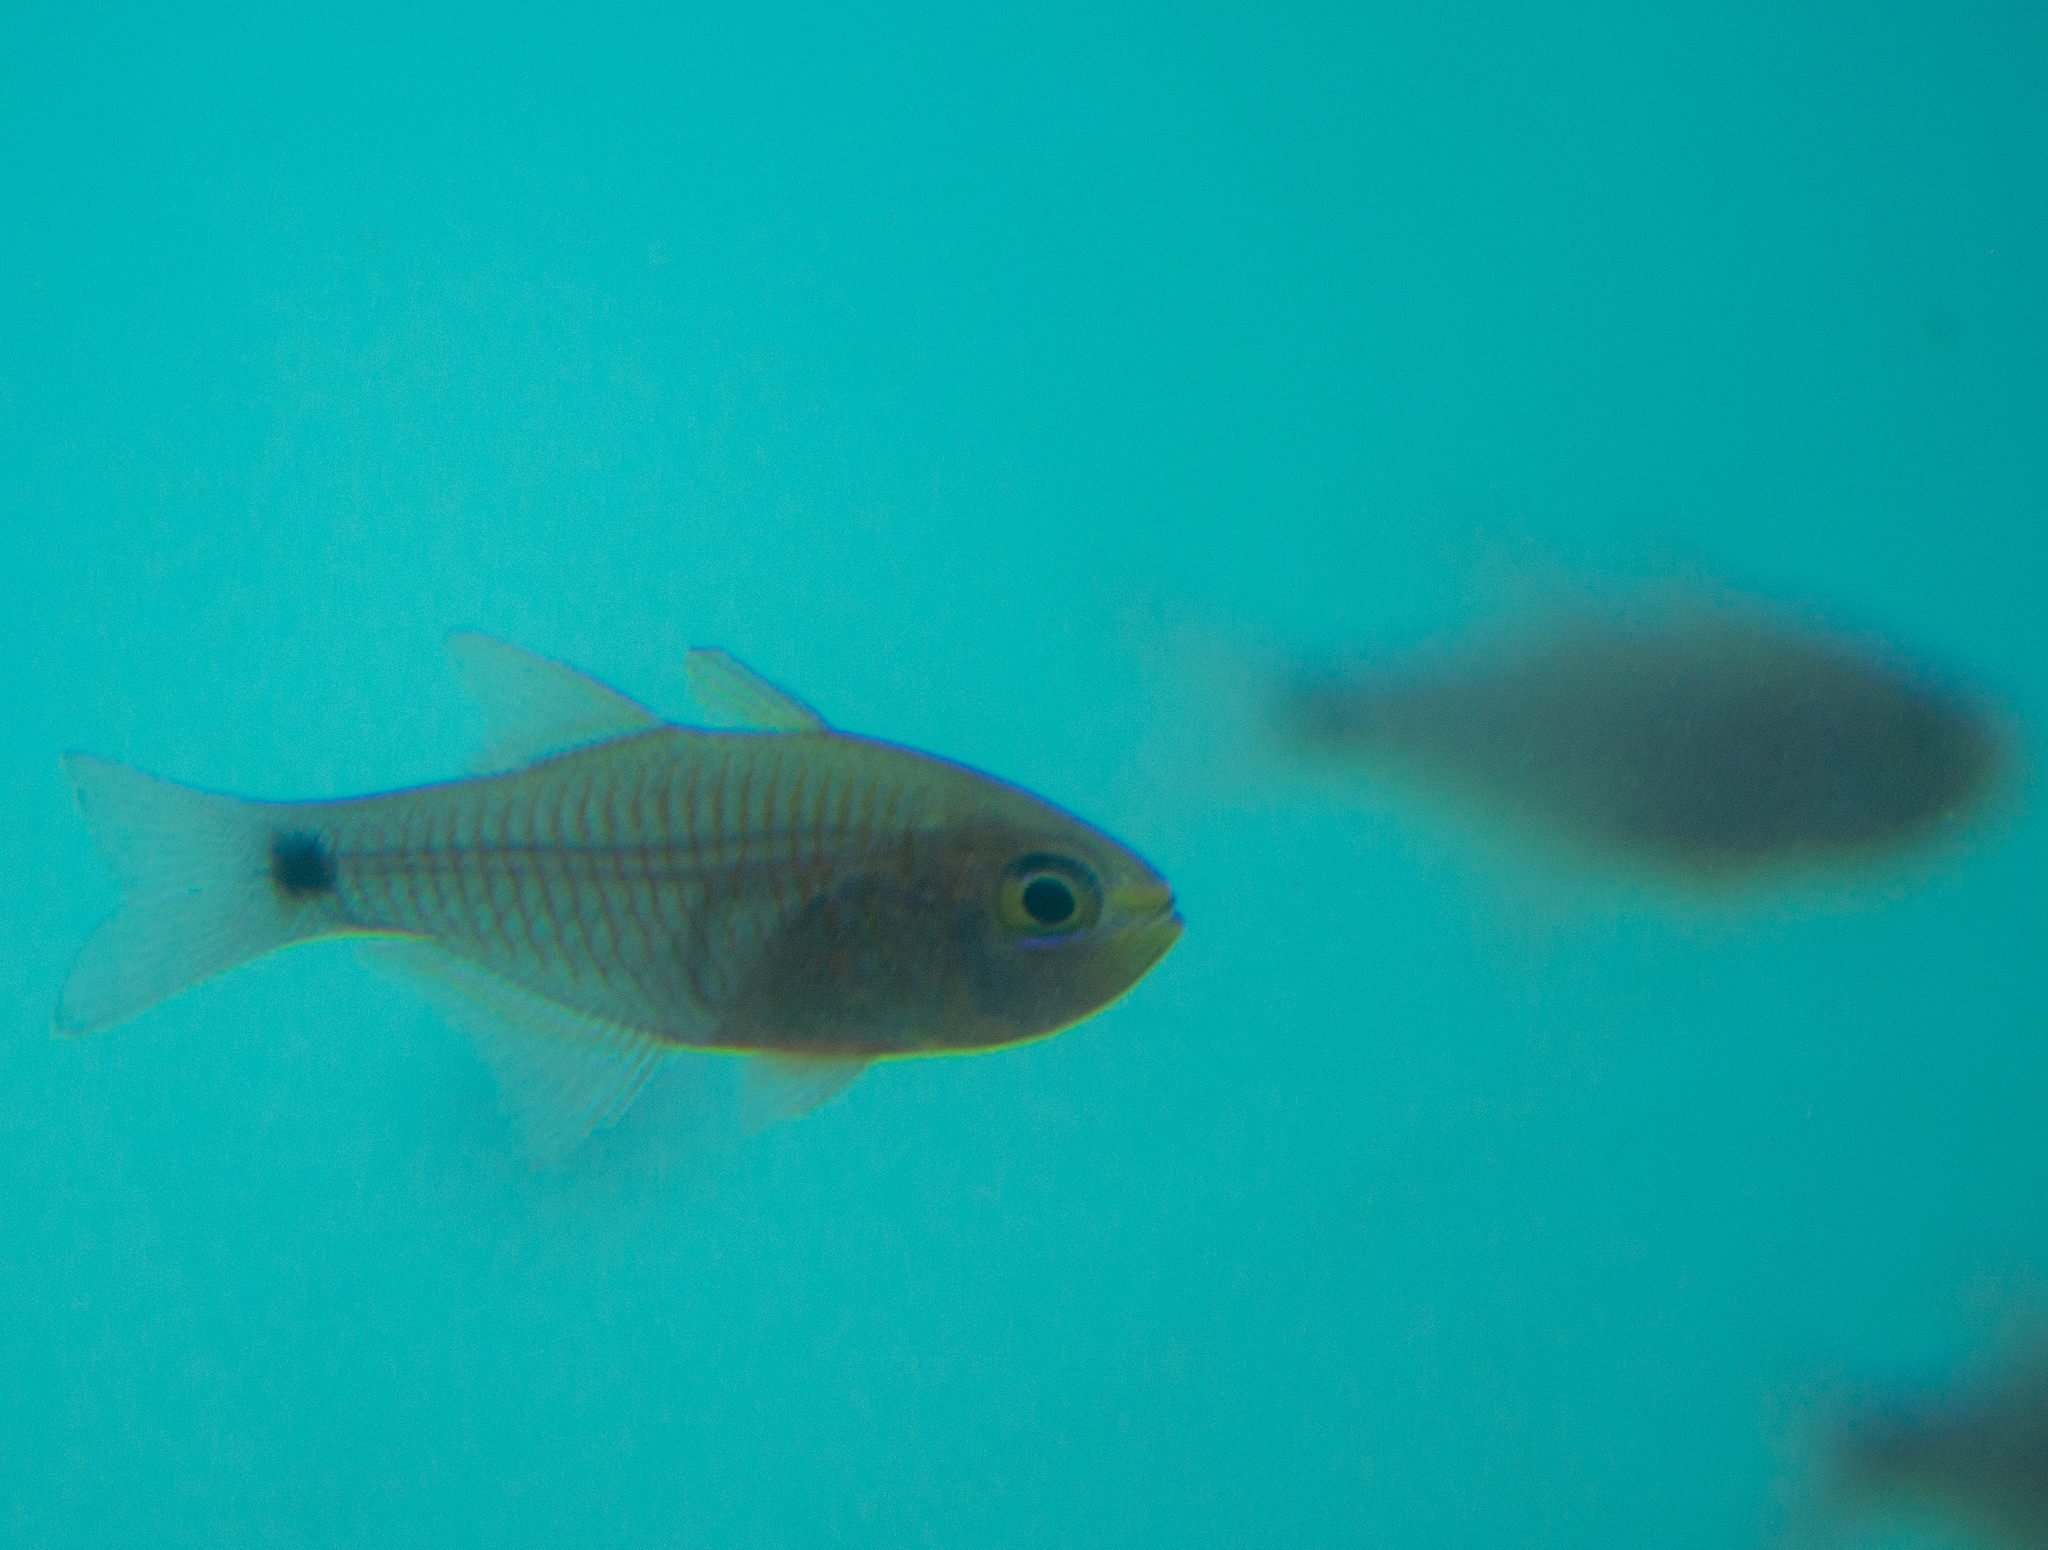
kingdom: Animalia
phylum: Chordata
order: Perciformes
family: Apogonidae
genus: Taeniamia
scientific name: Taeniamia fucata
